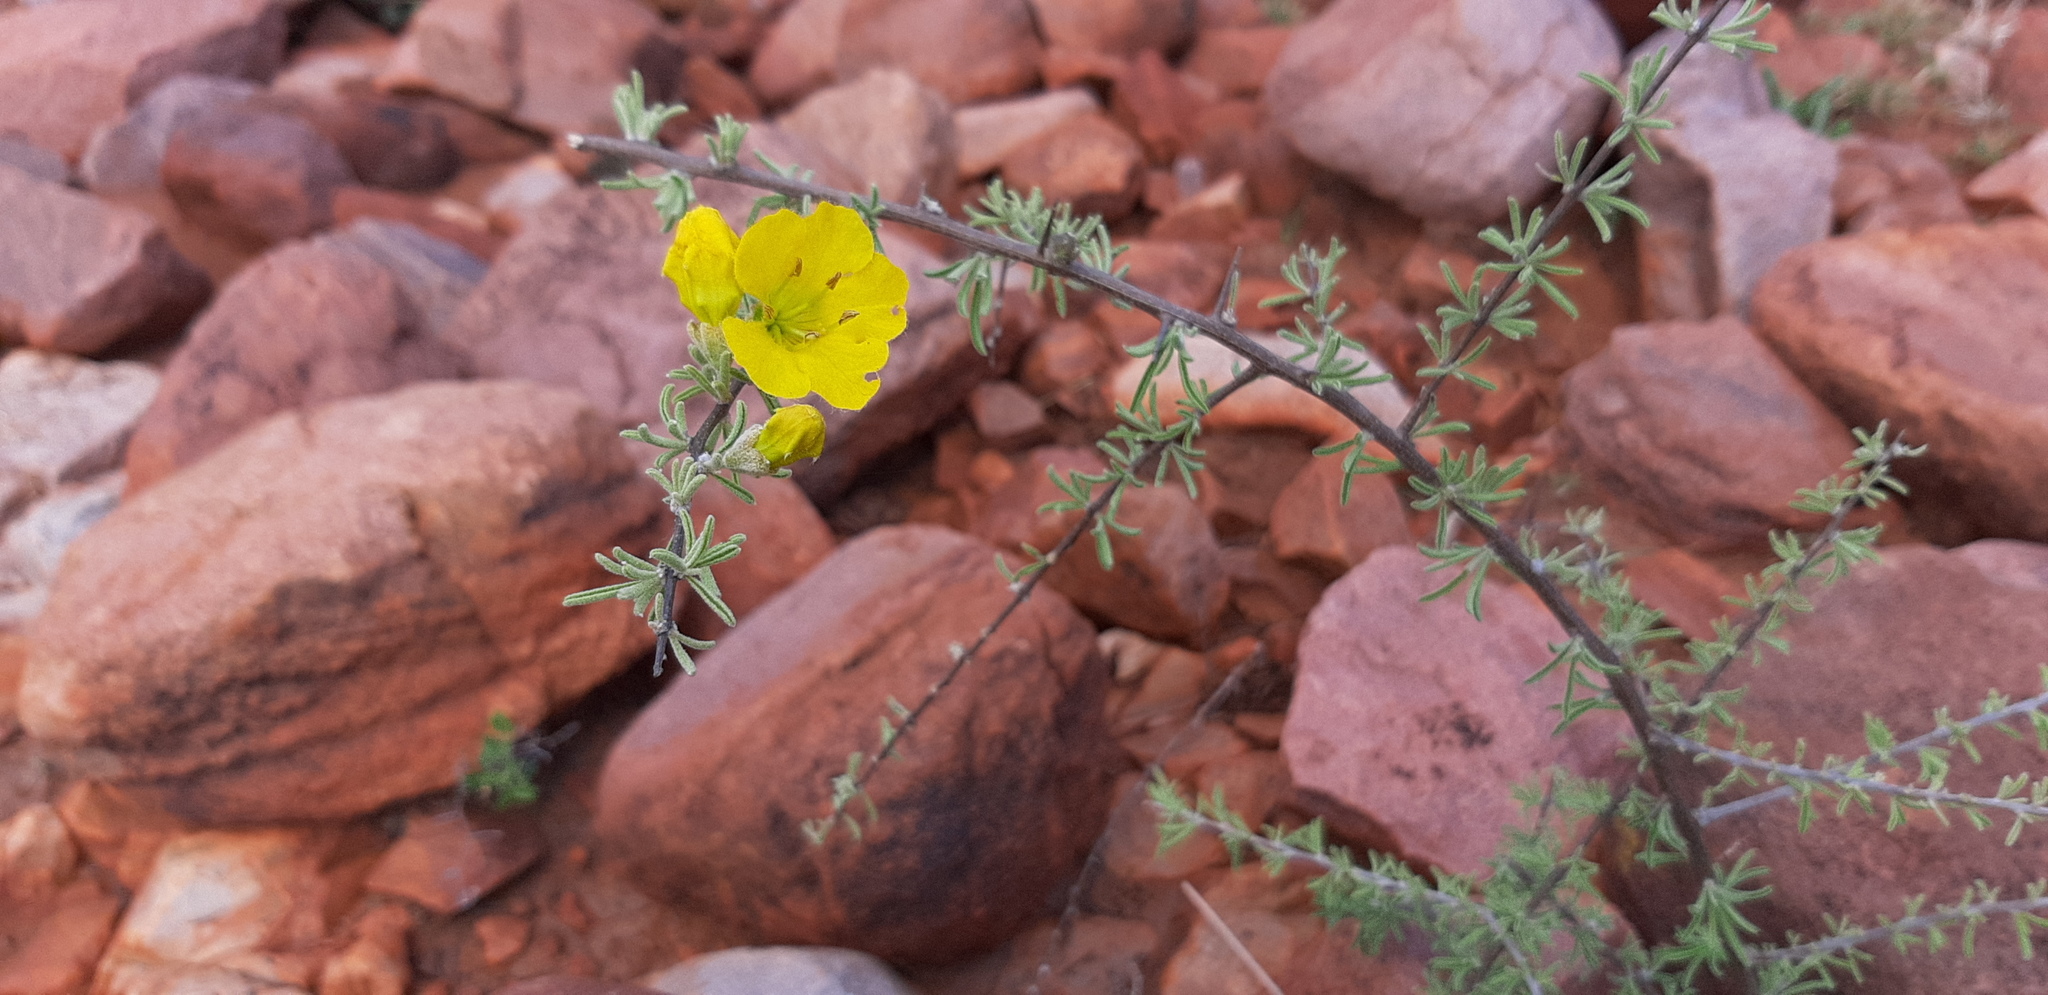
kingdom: Plantae
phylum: Tracheophyta
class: Magnoliopsida
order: Lamiales
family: Bignoniaceae
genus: Rhigozum
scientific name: Rhigozum brevispinosum
